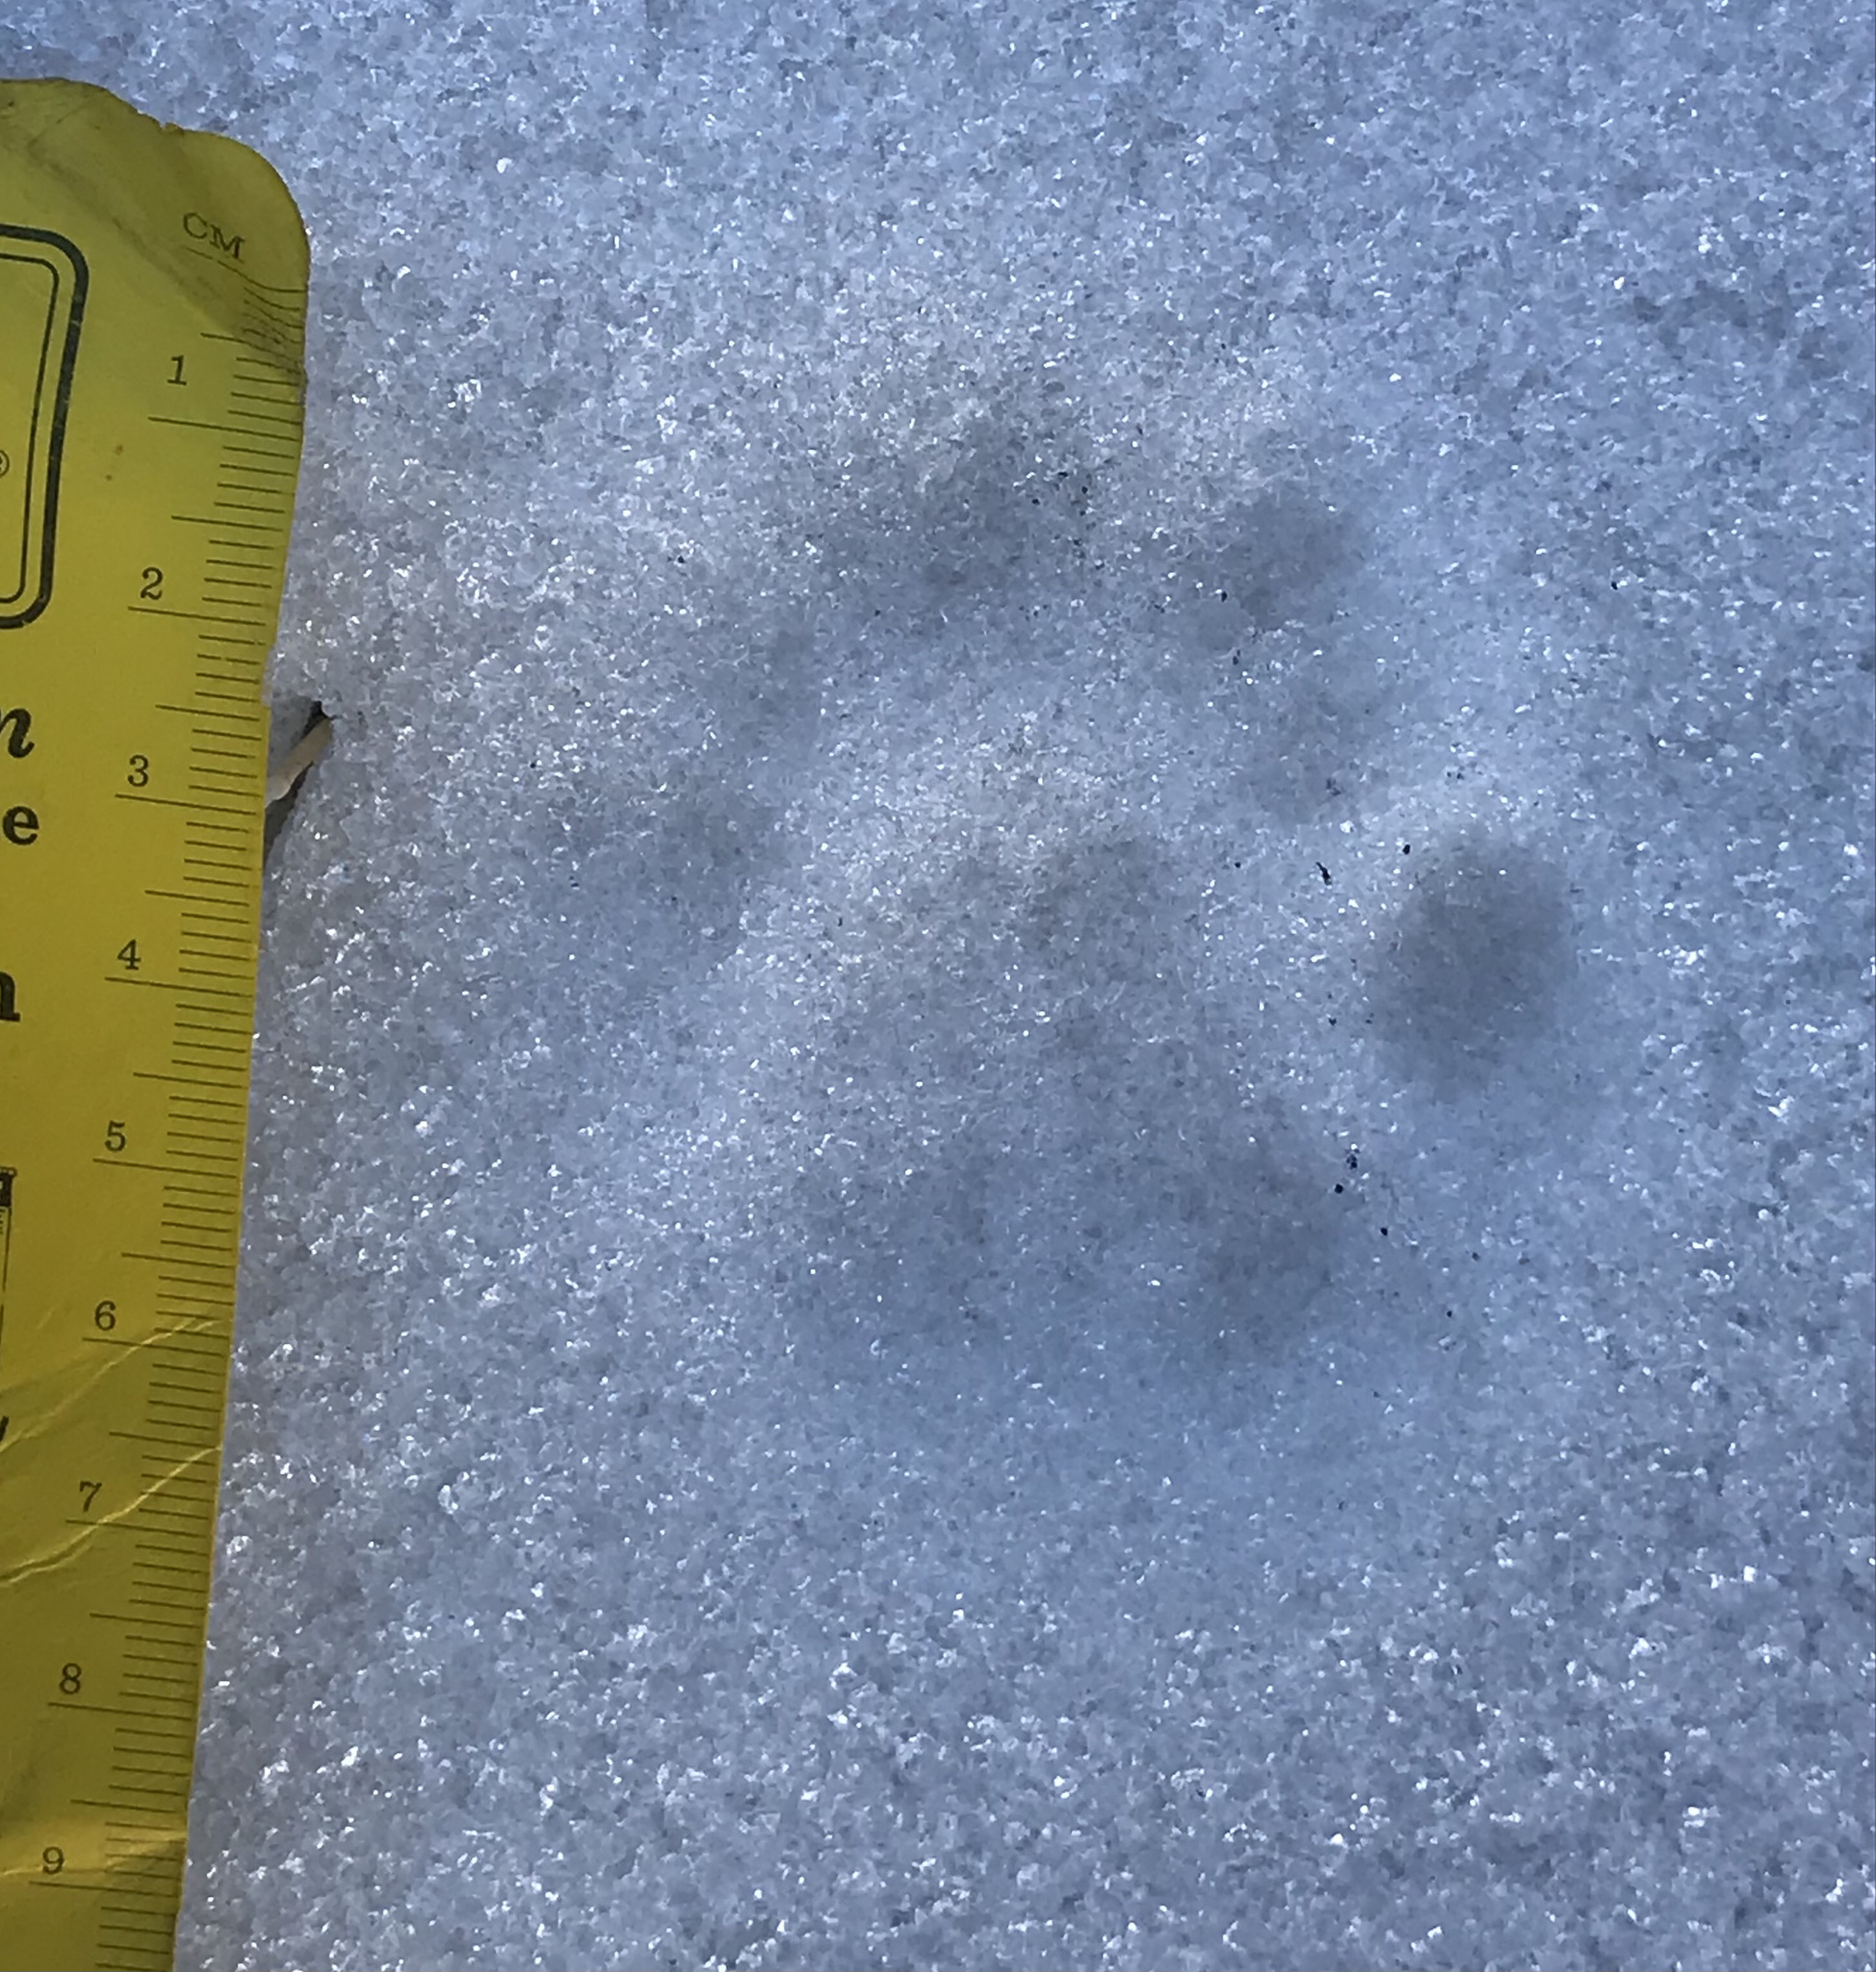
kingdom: Animalia
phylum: Chordata
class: Mammalia
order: Carnivora
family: Felidae
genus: Lynx
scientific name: Lynx rufus
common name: Bobcat
